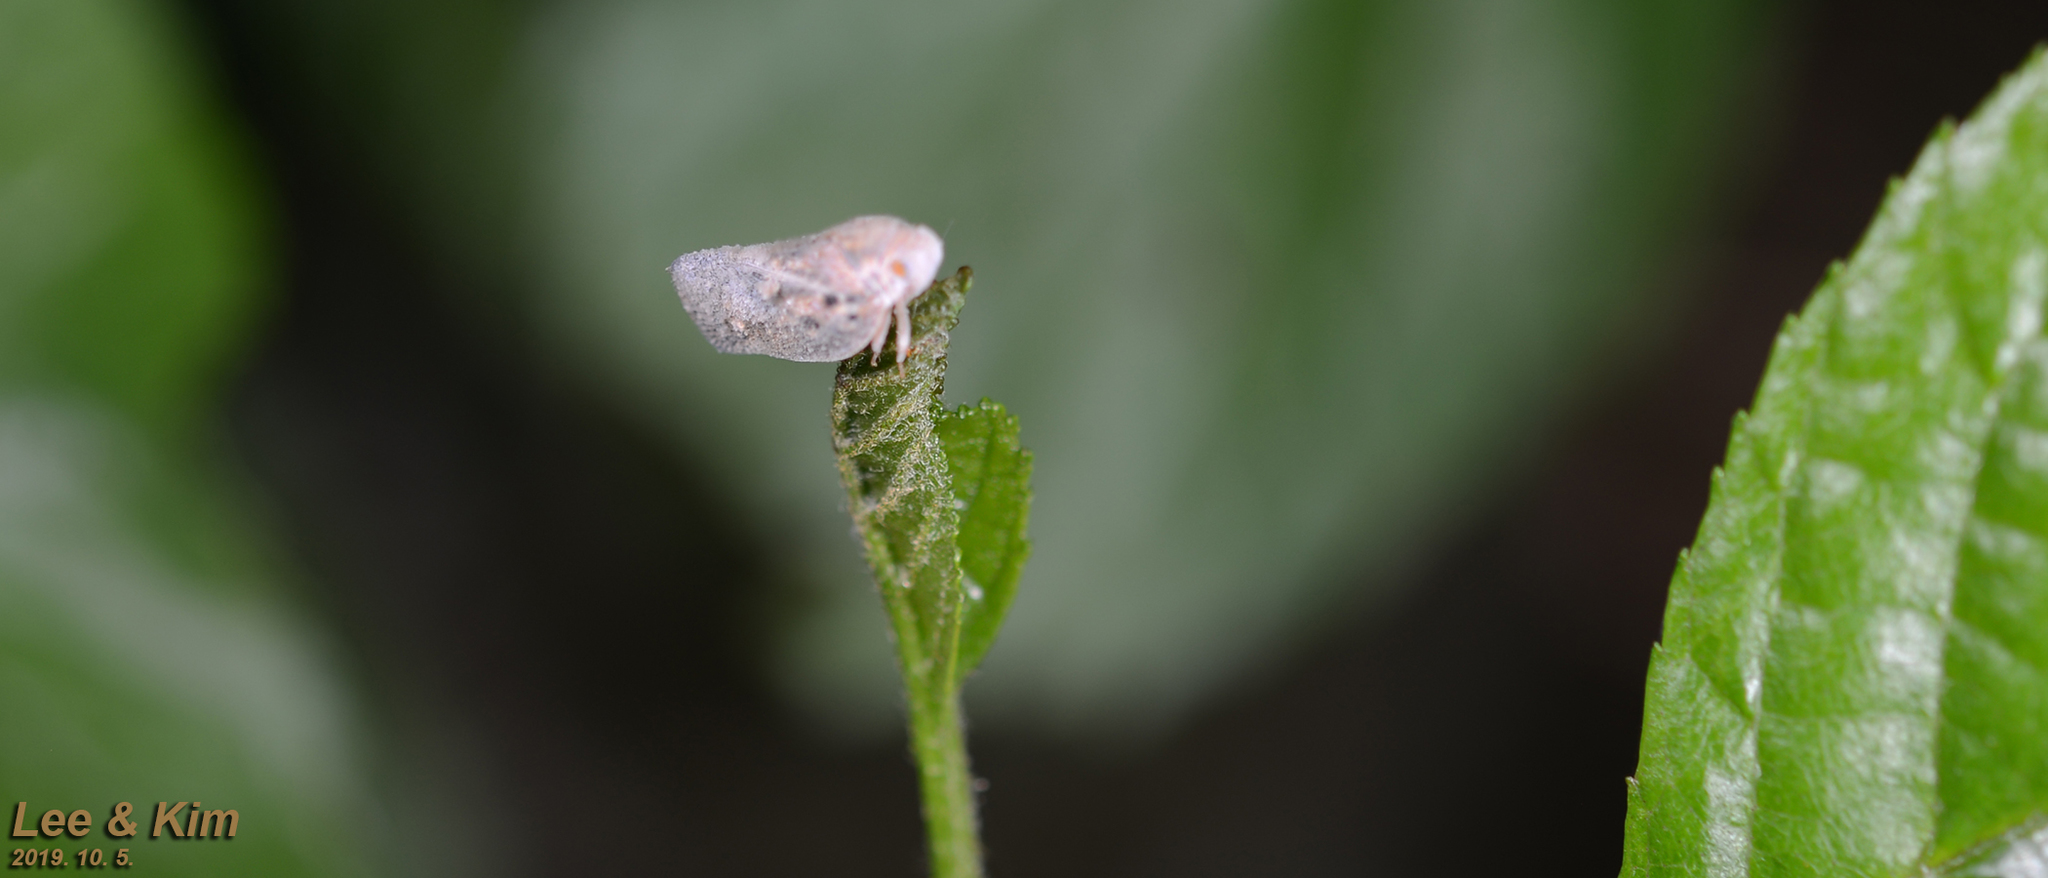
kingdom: Animalia
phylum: Arthropoda
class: Insecta
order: Hemiptera
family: Flatidae
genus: Metcalfa
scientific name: Metcalfa pruinosa
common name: Citrus flatid planthopper
